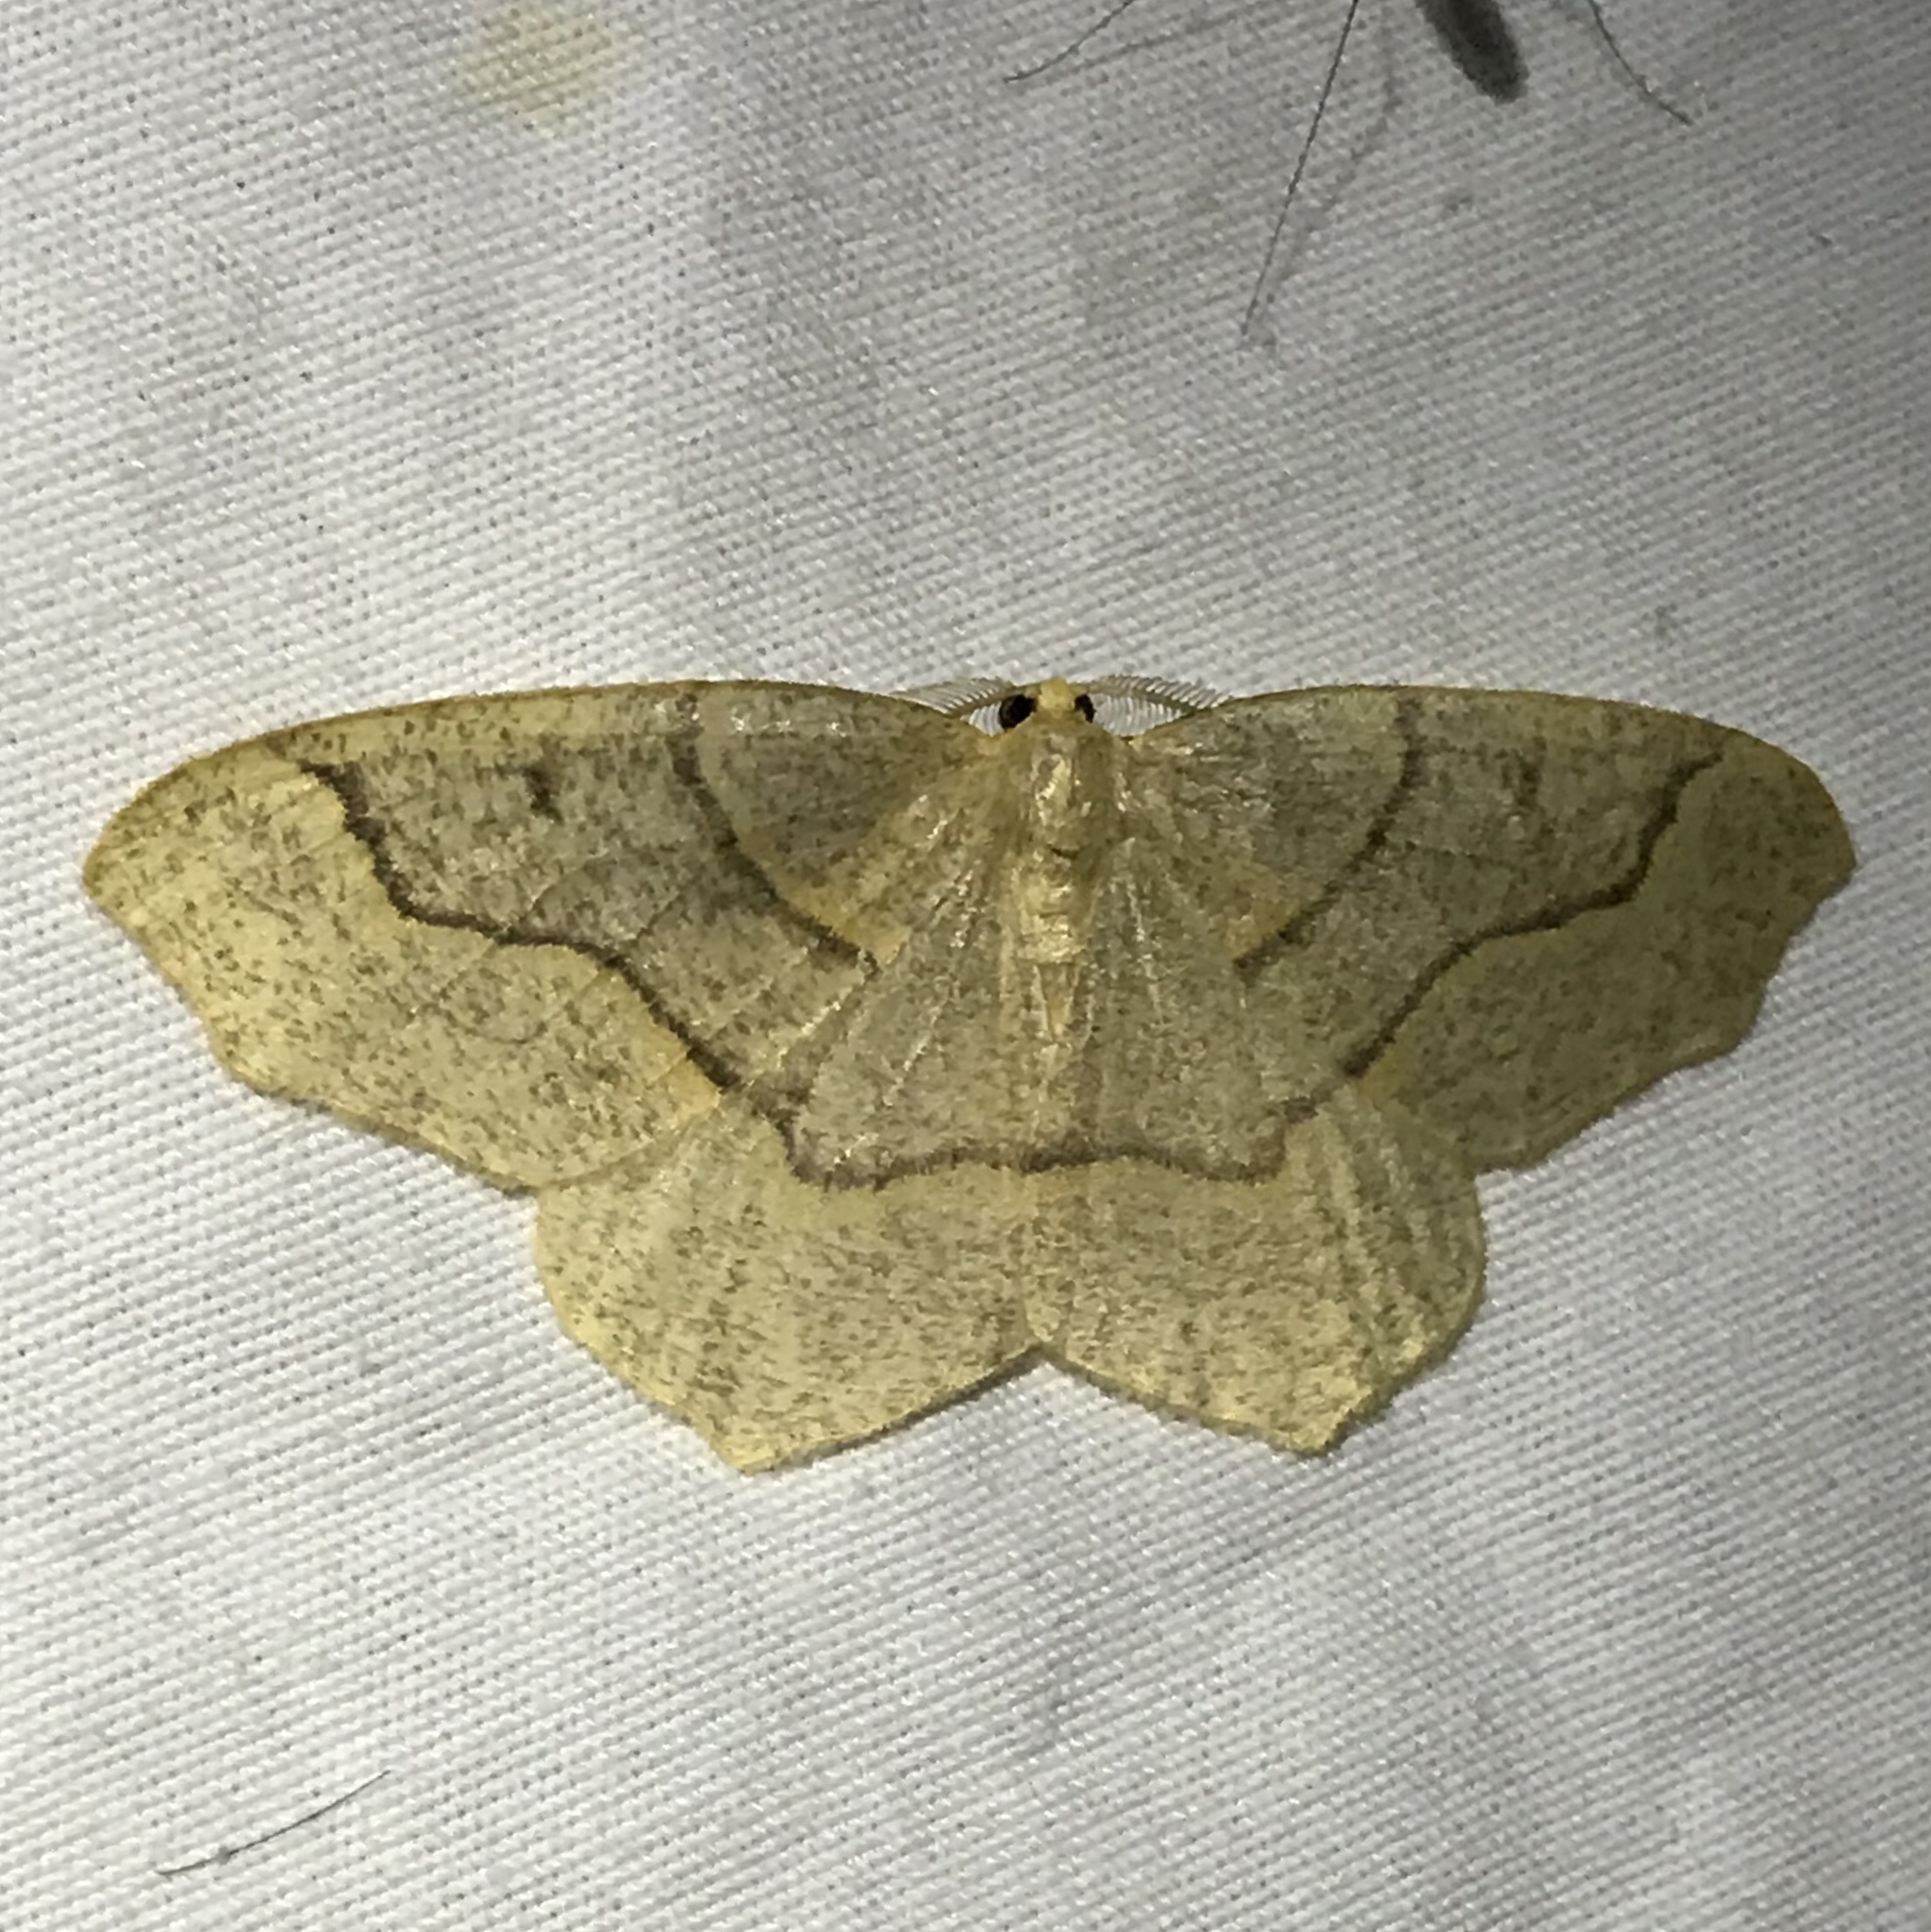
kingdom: Animalia
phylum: Arthropoda
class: Insecta
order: Lepidoptera
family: Geometridae
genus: Lambdina
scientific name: Lambdina fiscellaria
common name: Hemlock looper
